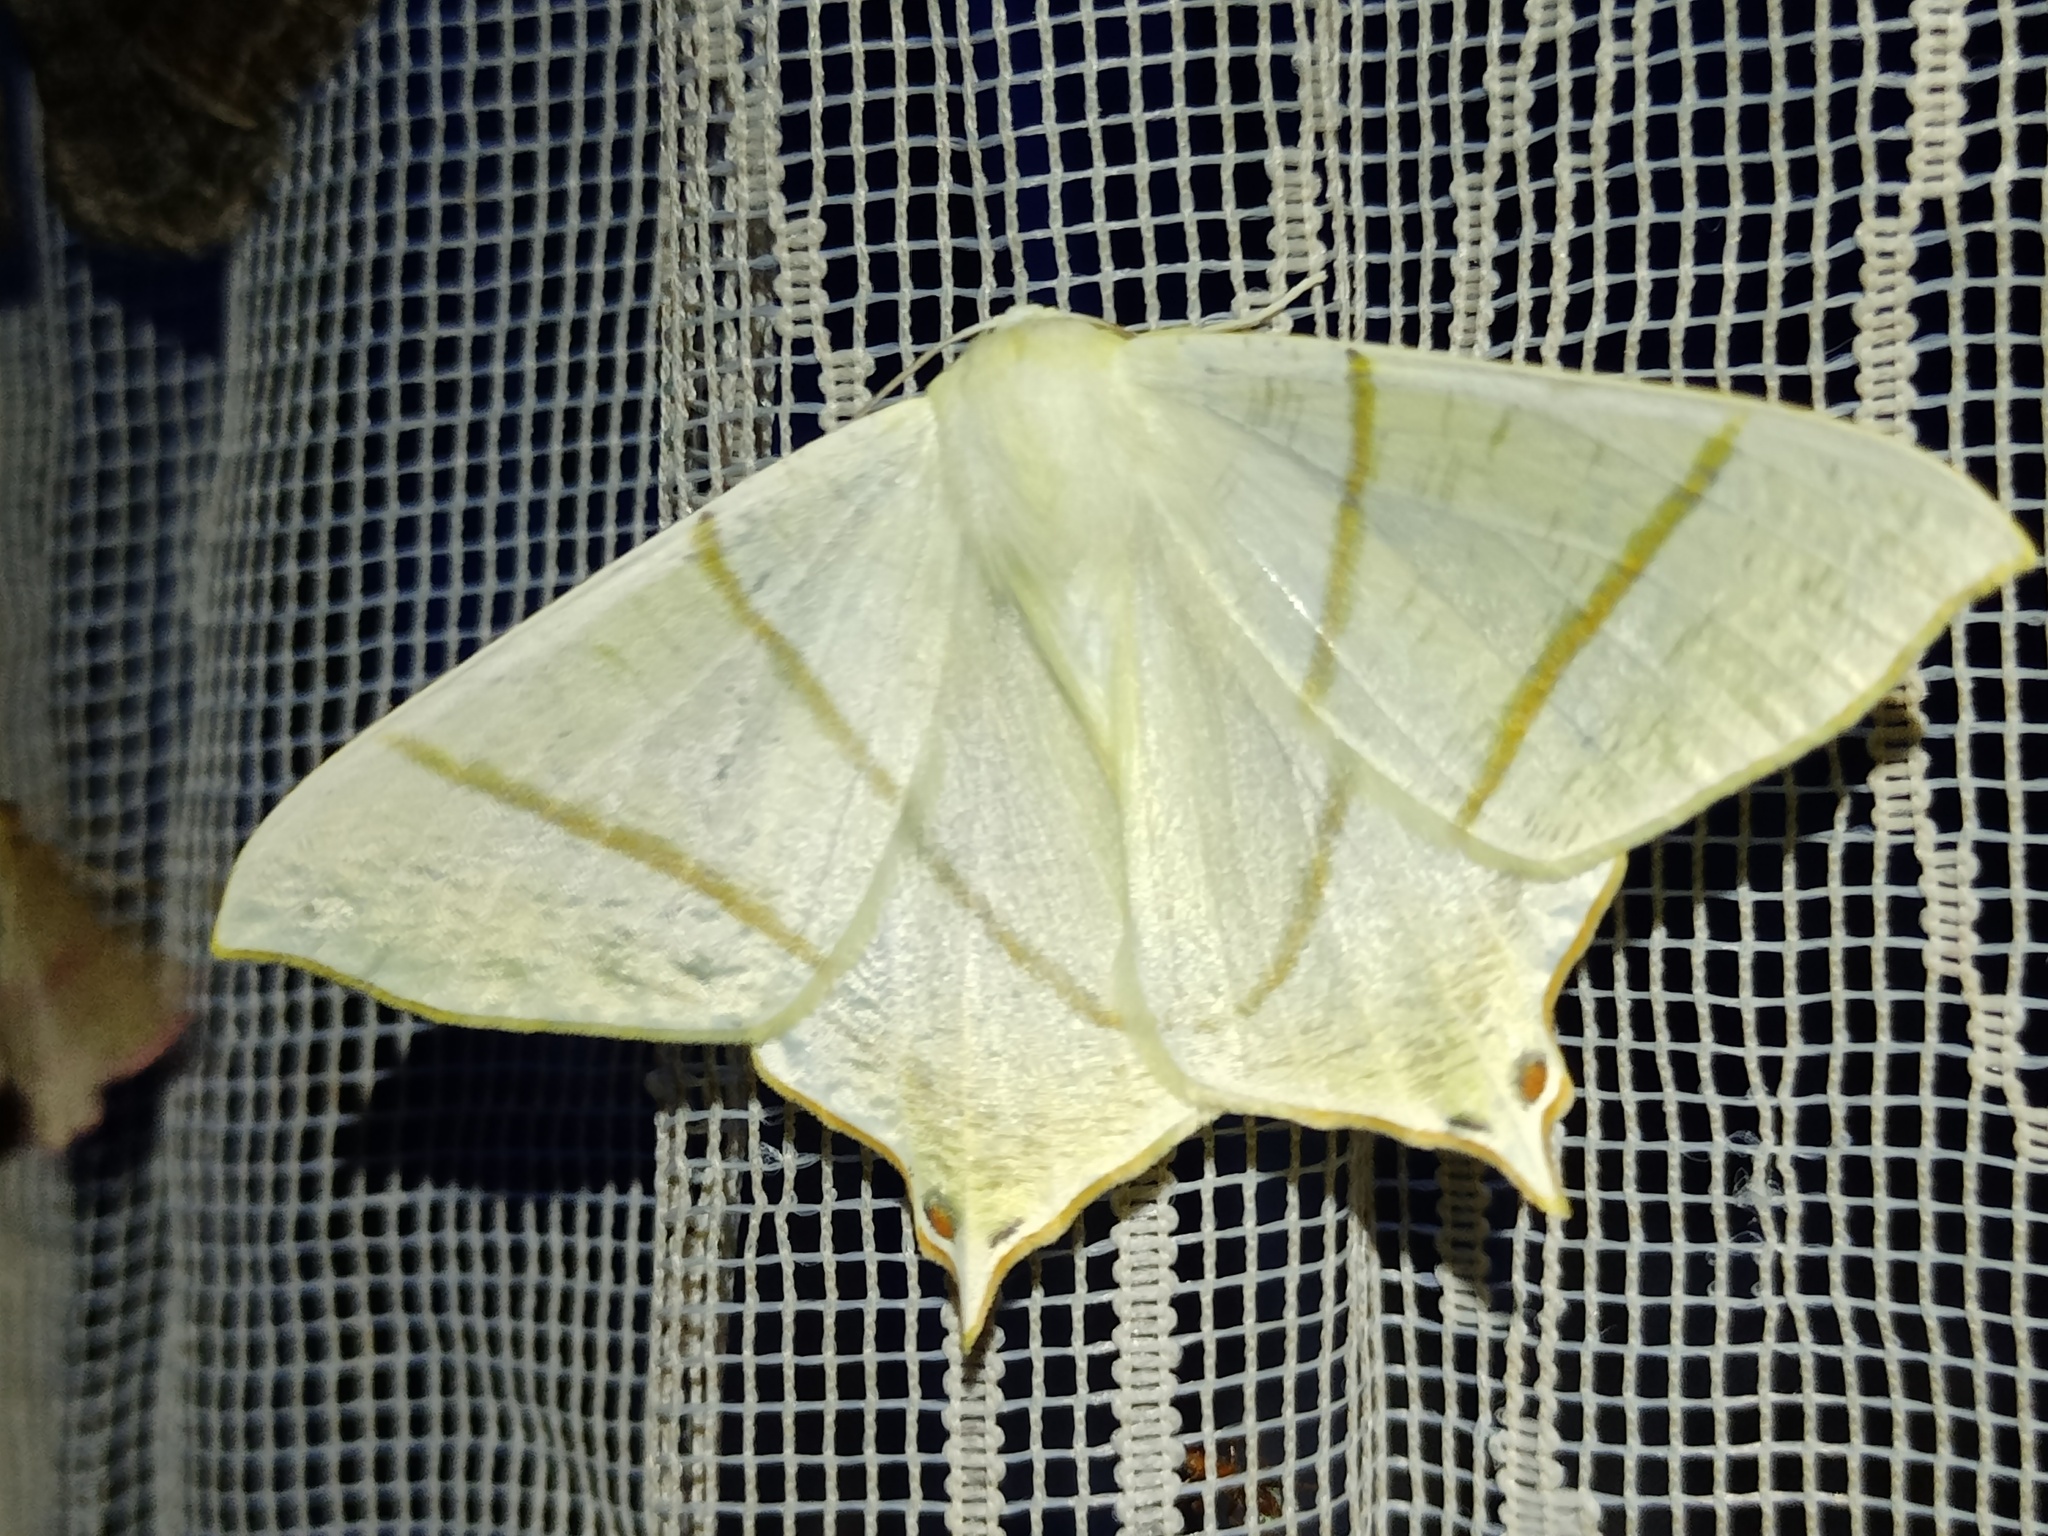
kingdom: Animalia
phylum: Arthropoda
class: Insecta
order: Lepidoptera
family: Geometridae
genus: Ourapteryx
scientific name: Ourapteryx sambucaria
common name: Swallow-tailed moth
